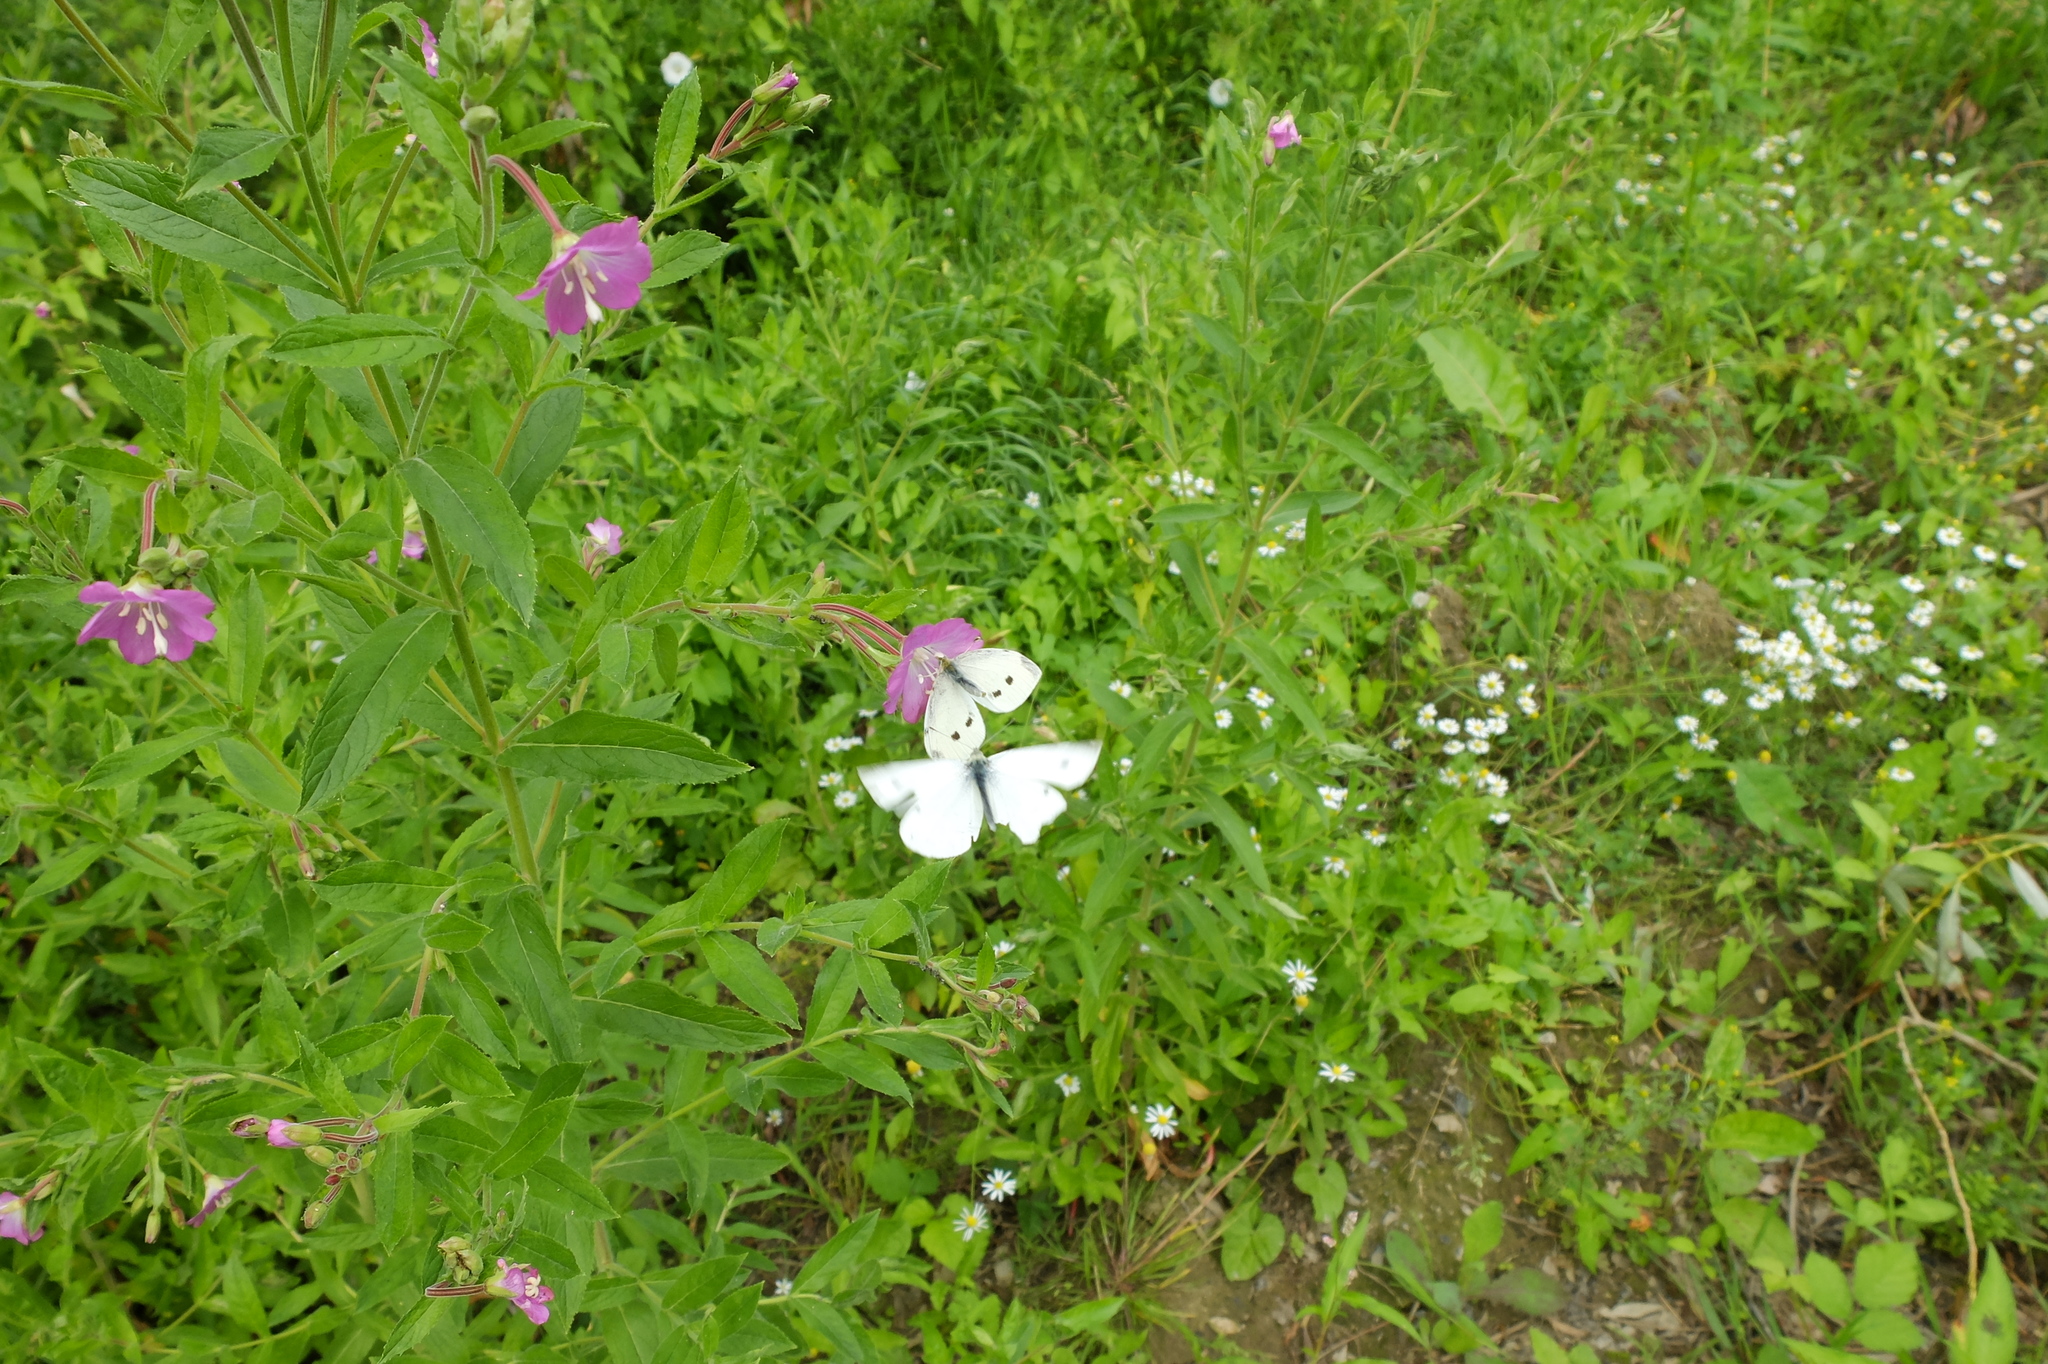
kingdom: Animalia
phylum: Arthropoda
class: Insecta
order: Lepidoptera
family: Pieridae
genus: Pieris
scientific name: Pieris rapae
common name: Small white
